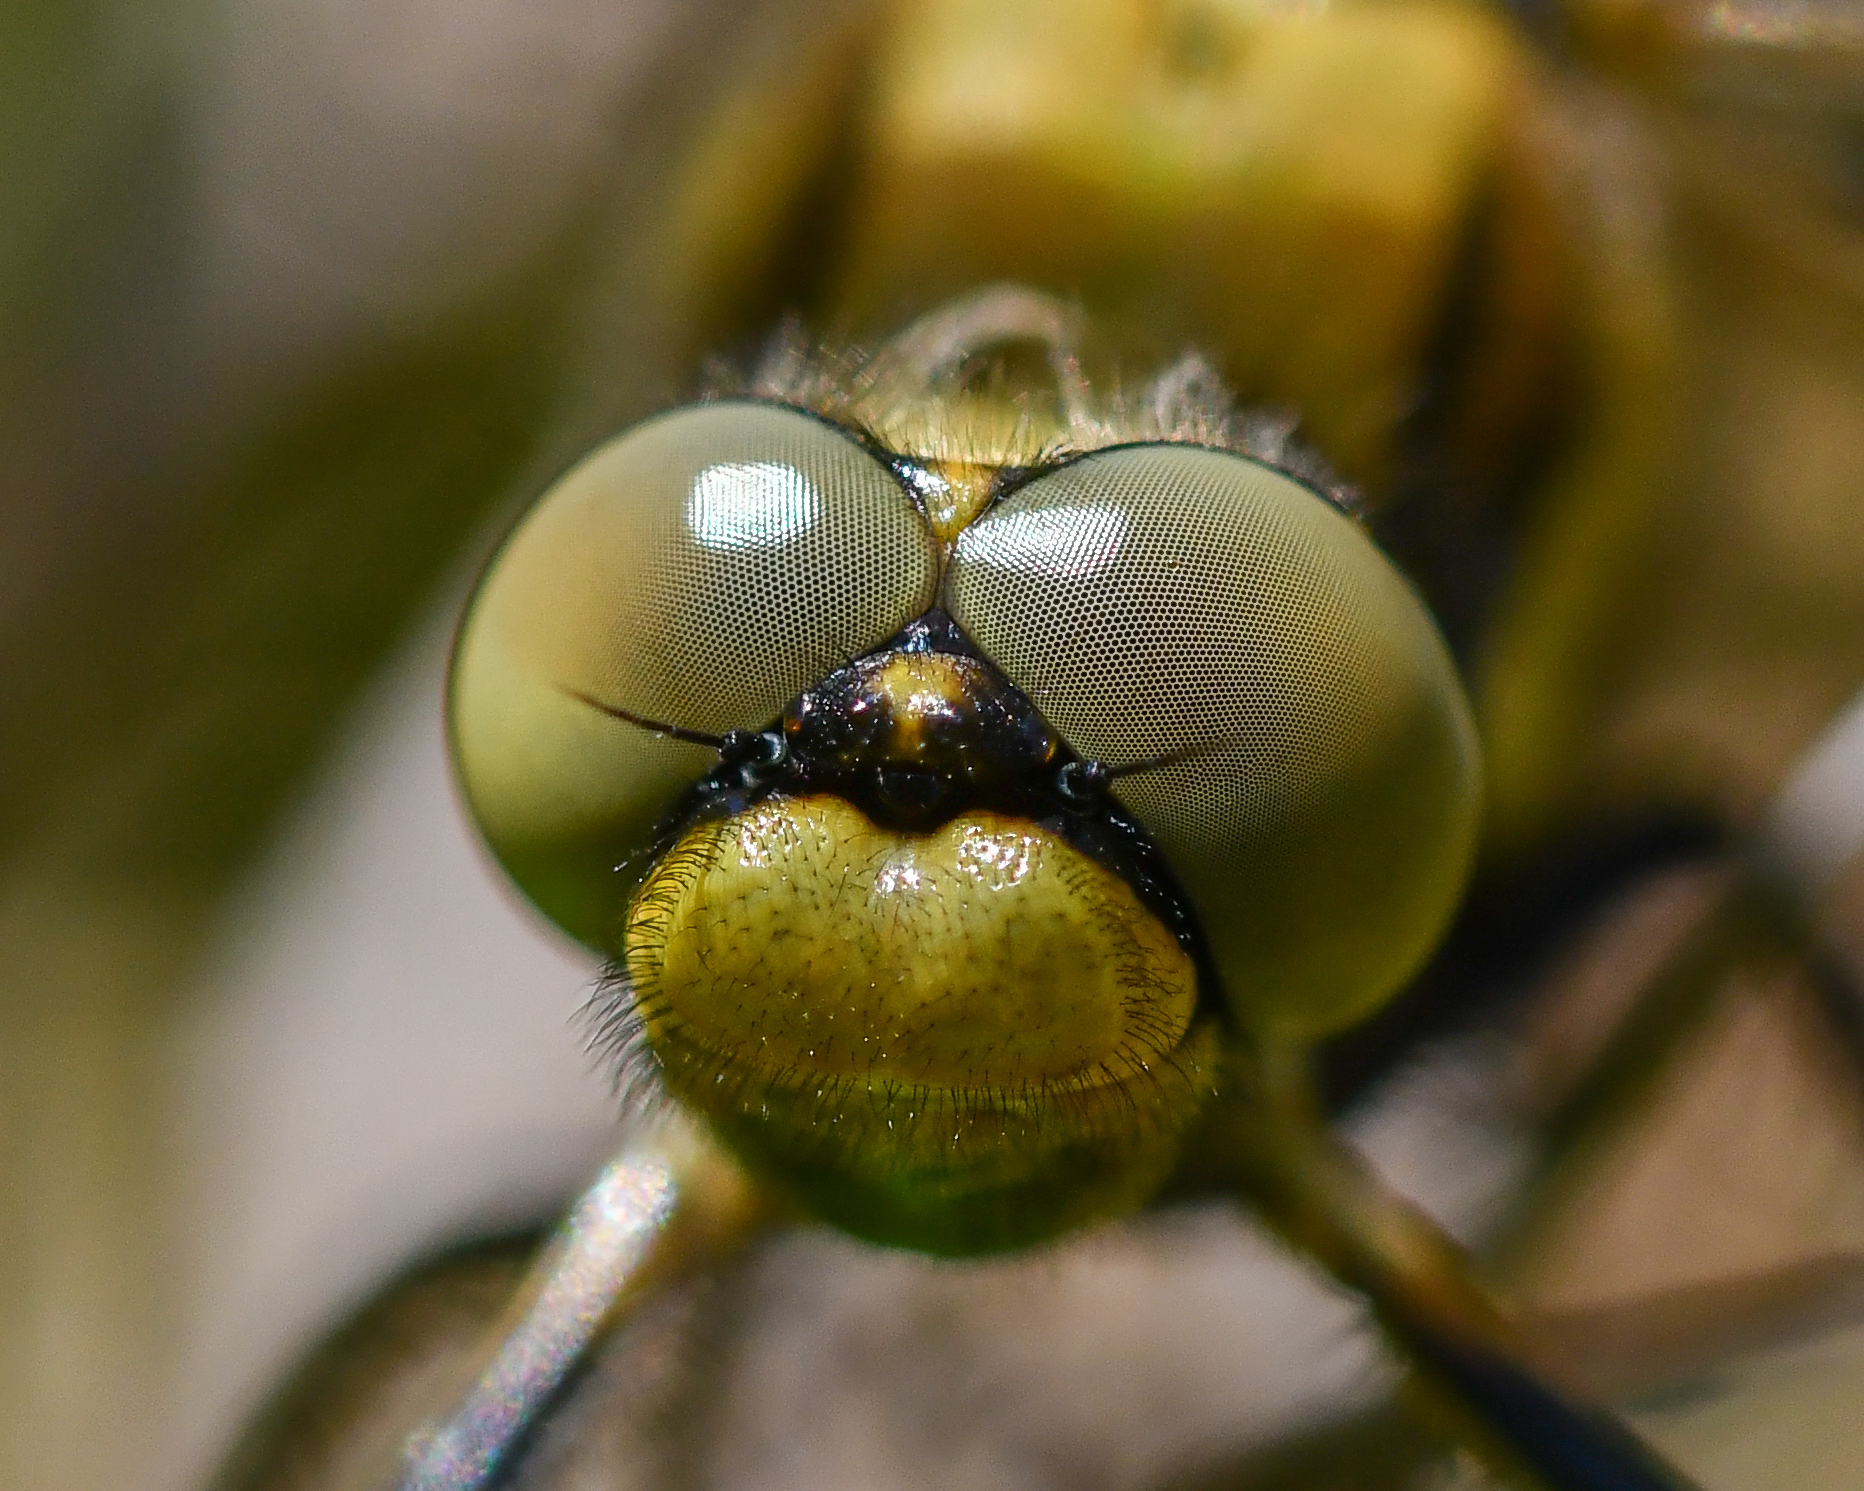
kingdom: Animalia
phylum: Arthropoda
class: Insecta
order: Odonata
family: Libellulidae
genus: Orthetrum
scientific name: Orthetrum cancellatum
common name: Black-tailed skimmer
